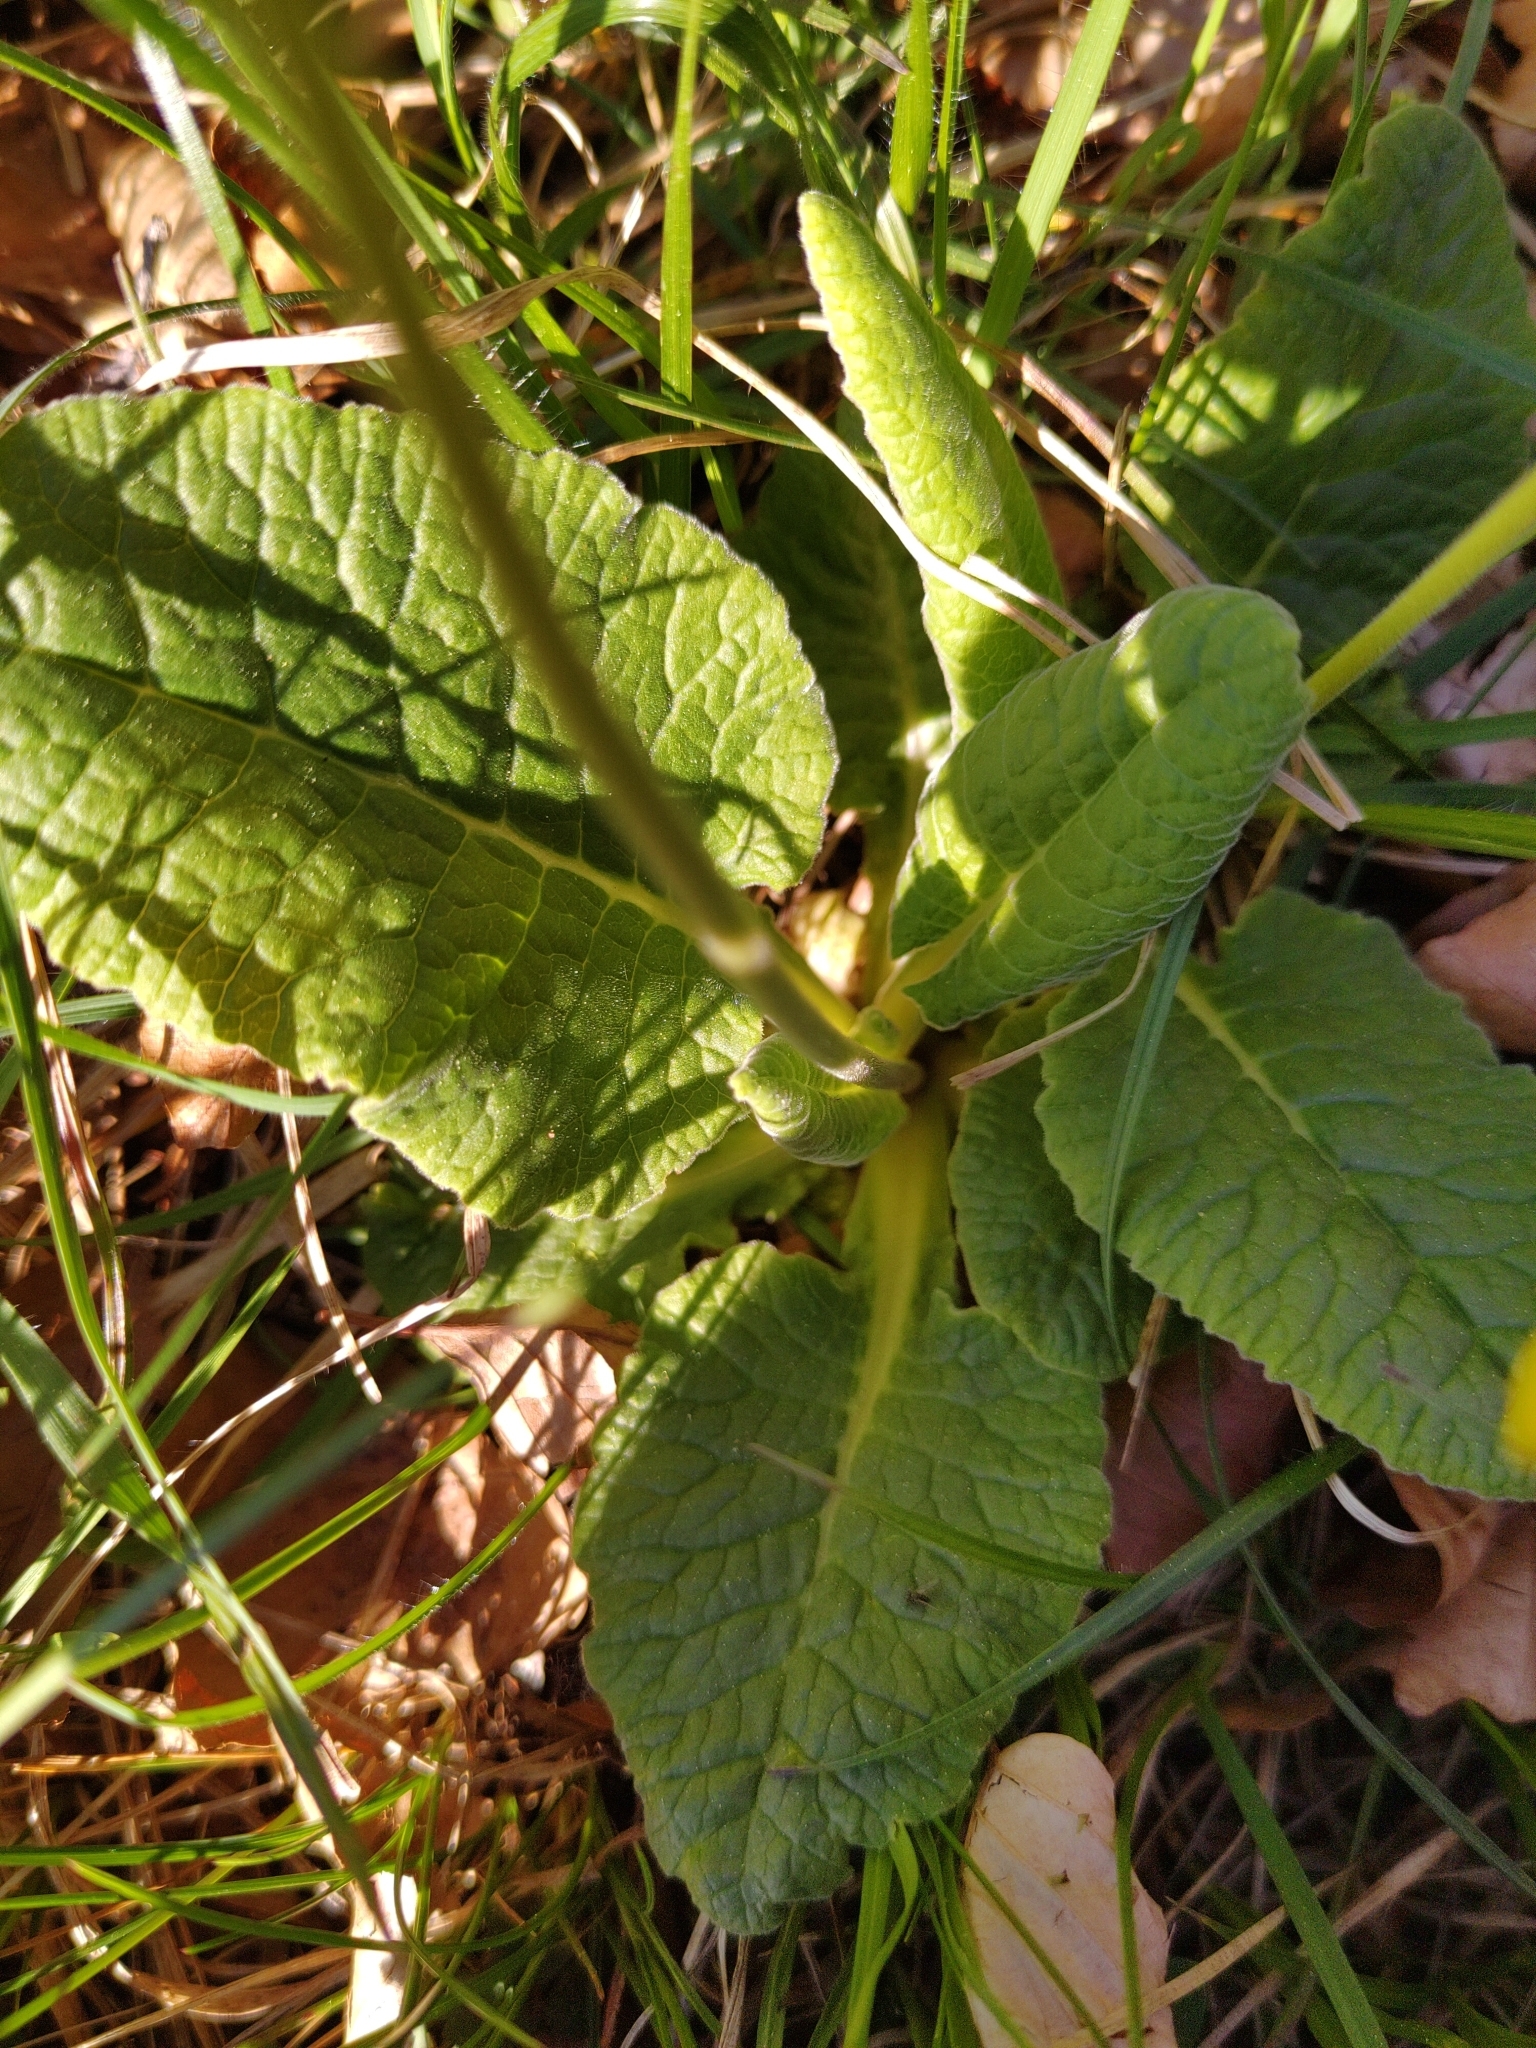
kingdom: Plantae
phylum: Tracheophyta
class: Magnoliopsida
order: Ericales
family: Primulaceae
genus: Primula
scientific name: Primula veris
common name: Cowslip
